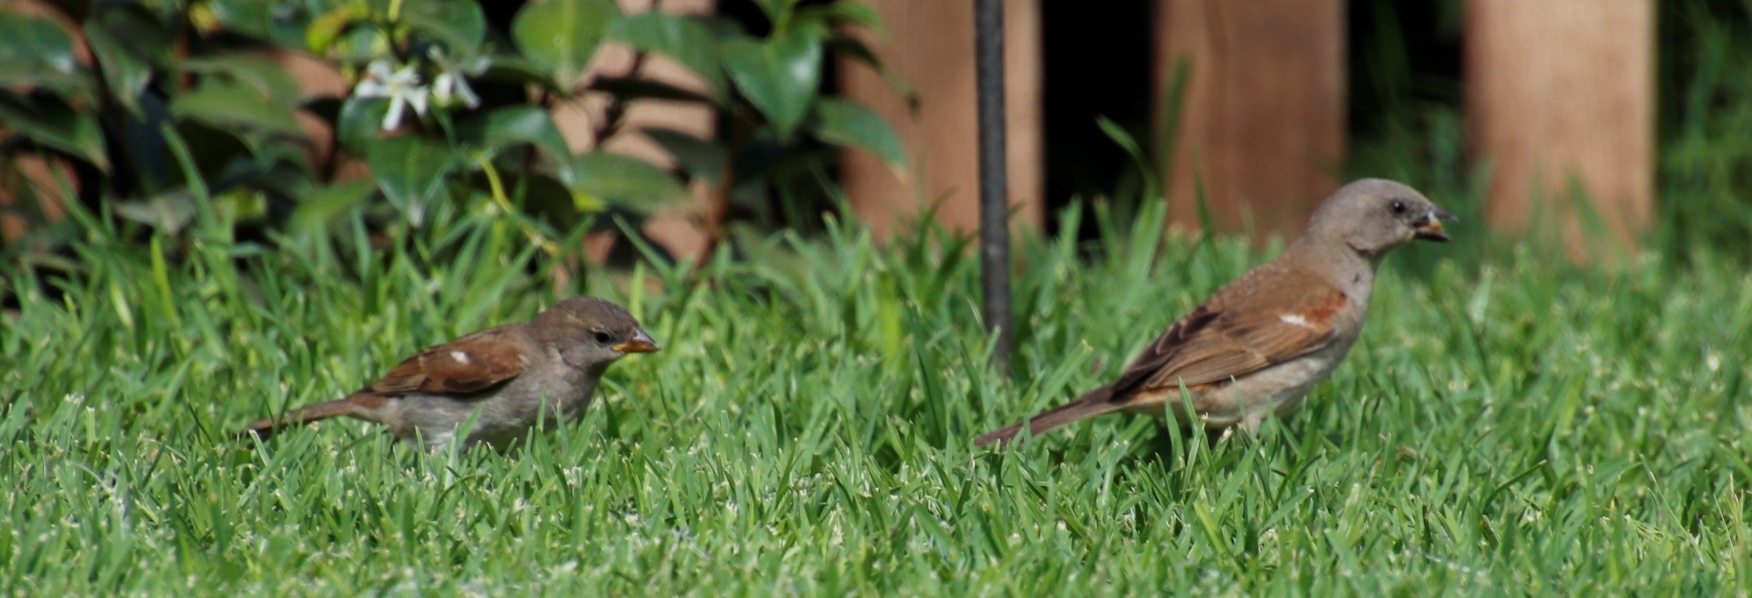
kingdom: Animalia
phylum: Chordata
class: Aves
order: Passeriformes
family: Passeridae
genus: Passer
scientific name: Passer diffusus
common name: Southern grey-headed sparrow
